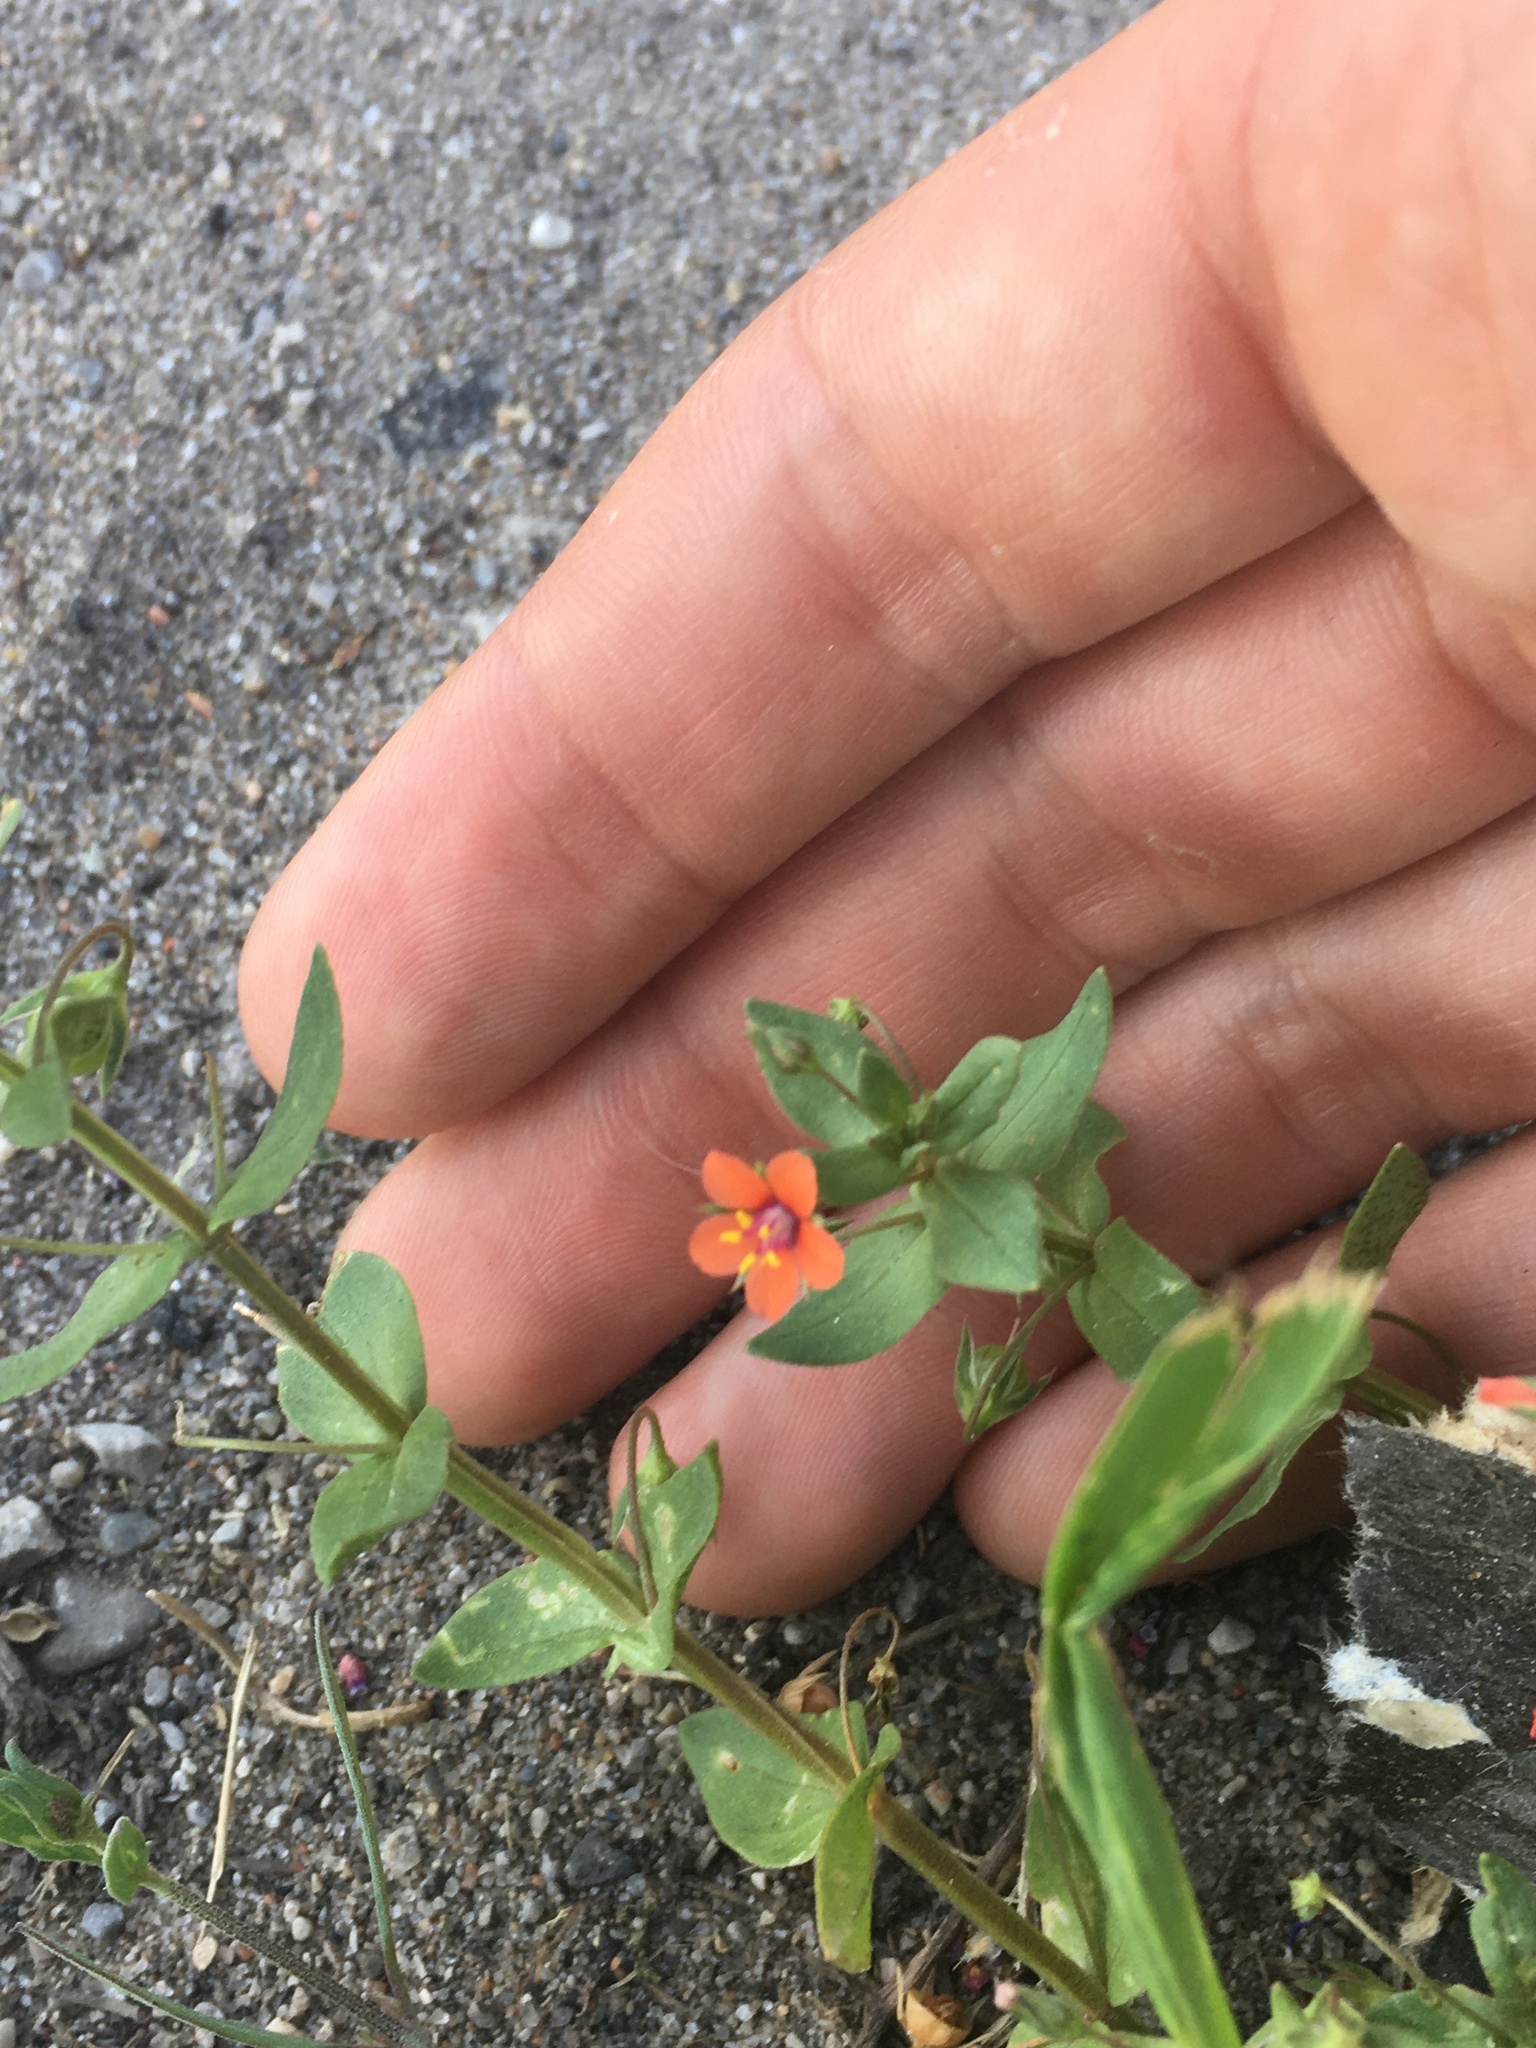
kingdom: Plantae
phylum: Tracheophyta
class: Magnoliopsida
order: Ericales
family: Primulaceae
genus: Lysimachia
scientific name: Lysimachia arvensis
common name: Scarlet pimpernel
